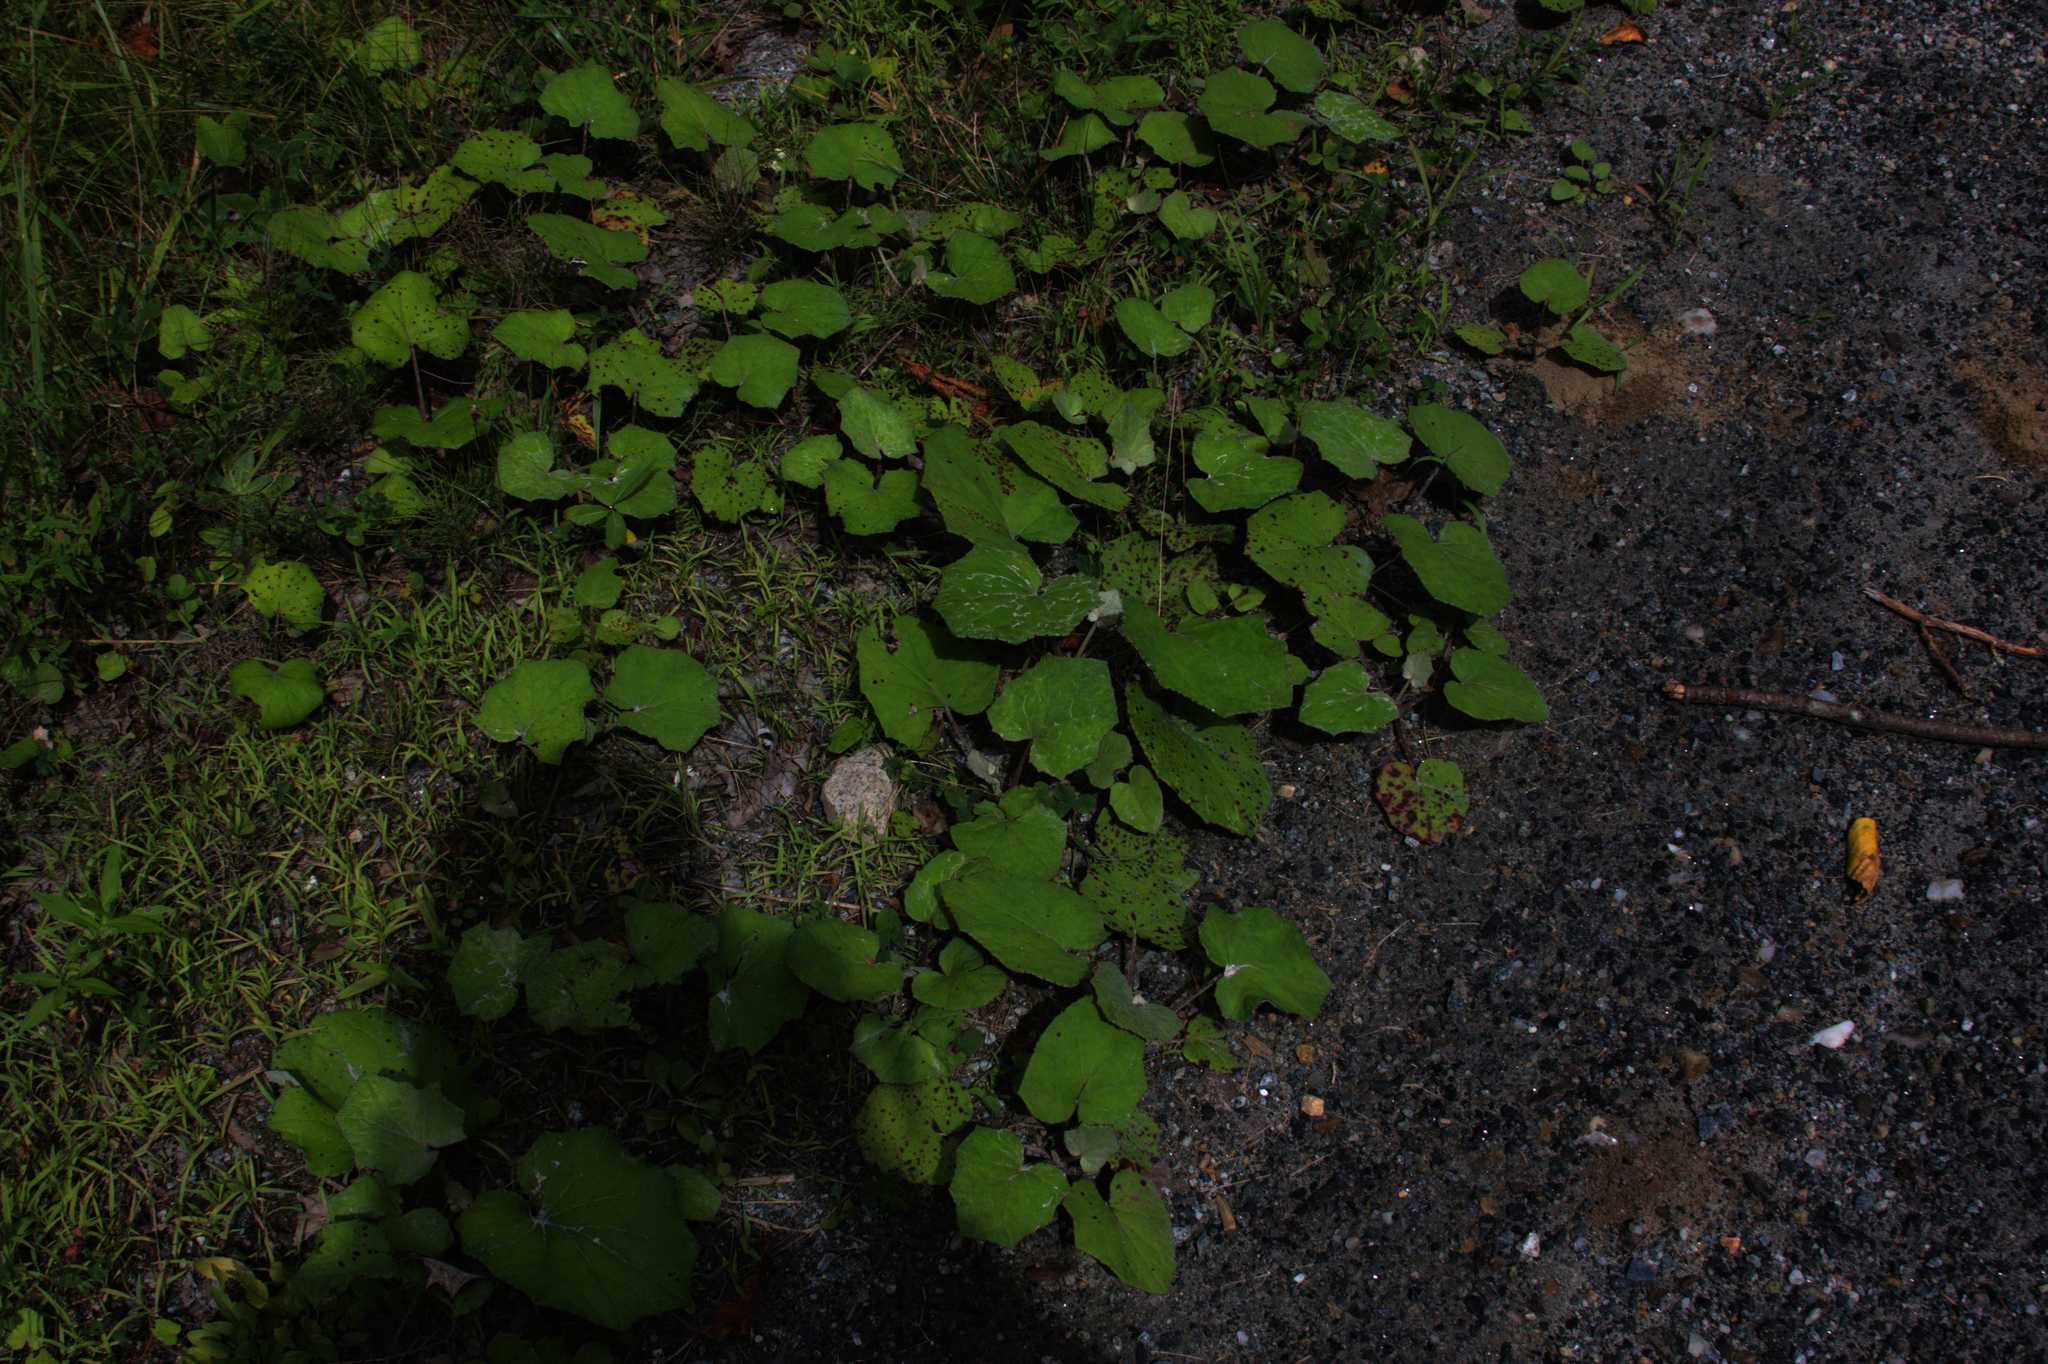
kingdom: Plantae
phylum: Tracheophyta
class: Magnoliopsida
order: Asterales
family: Asteraceae
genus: Tussilago
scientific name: Tussilago farfara
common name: Coltsfoot
